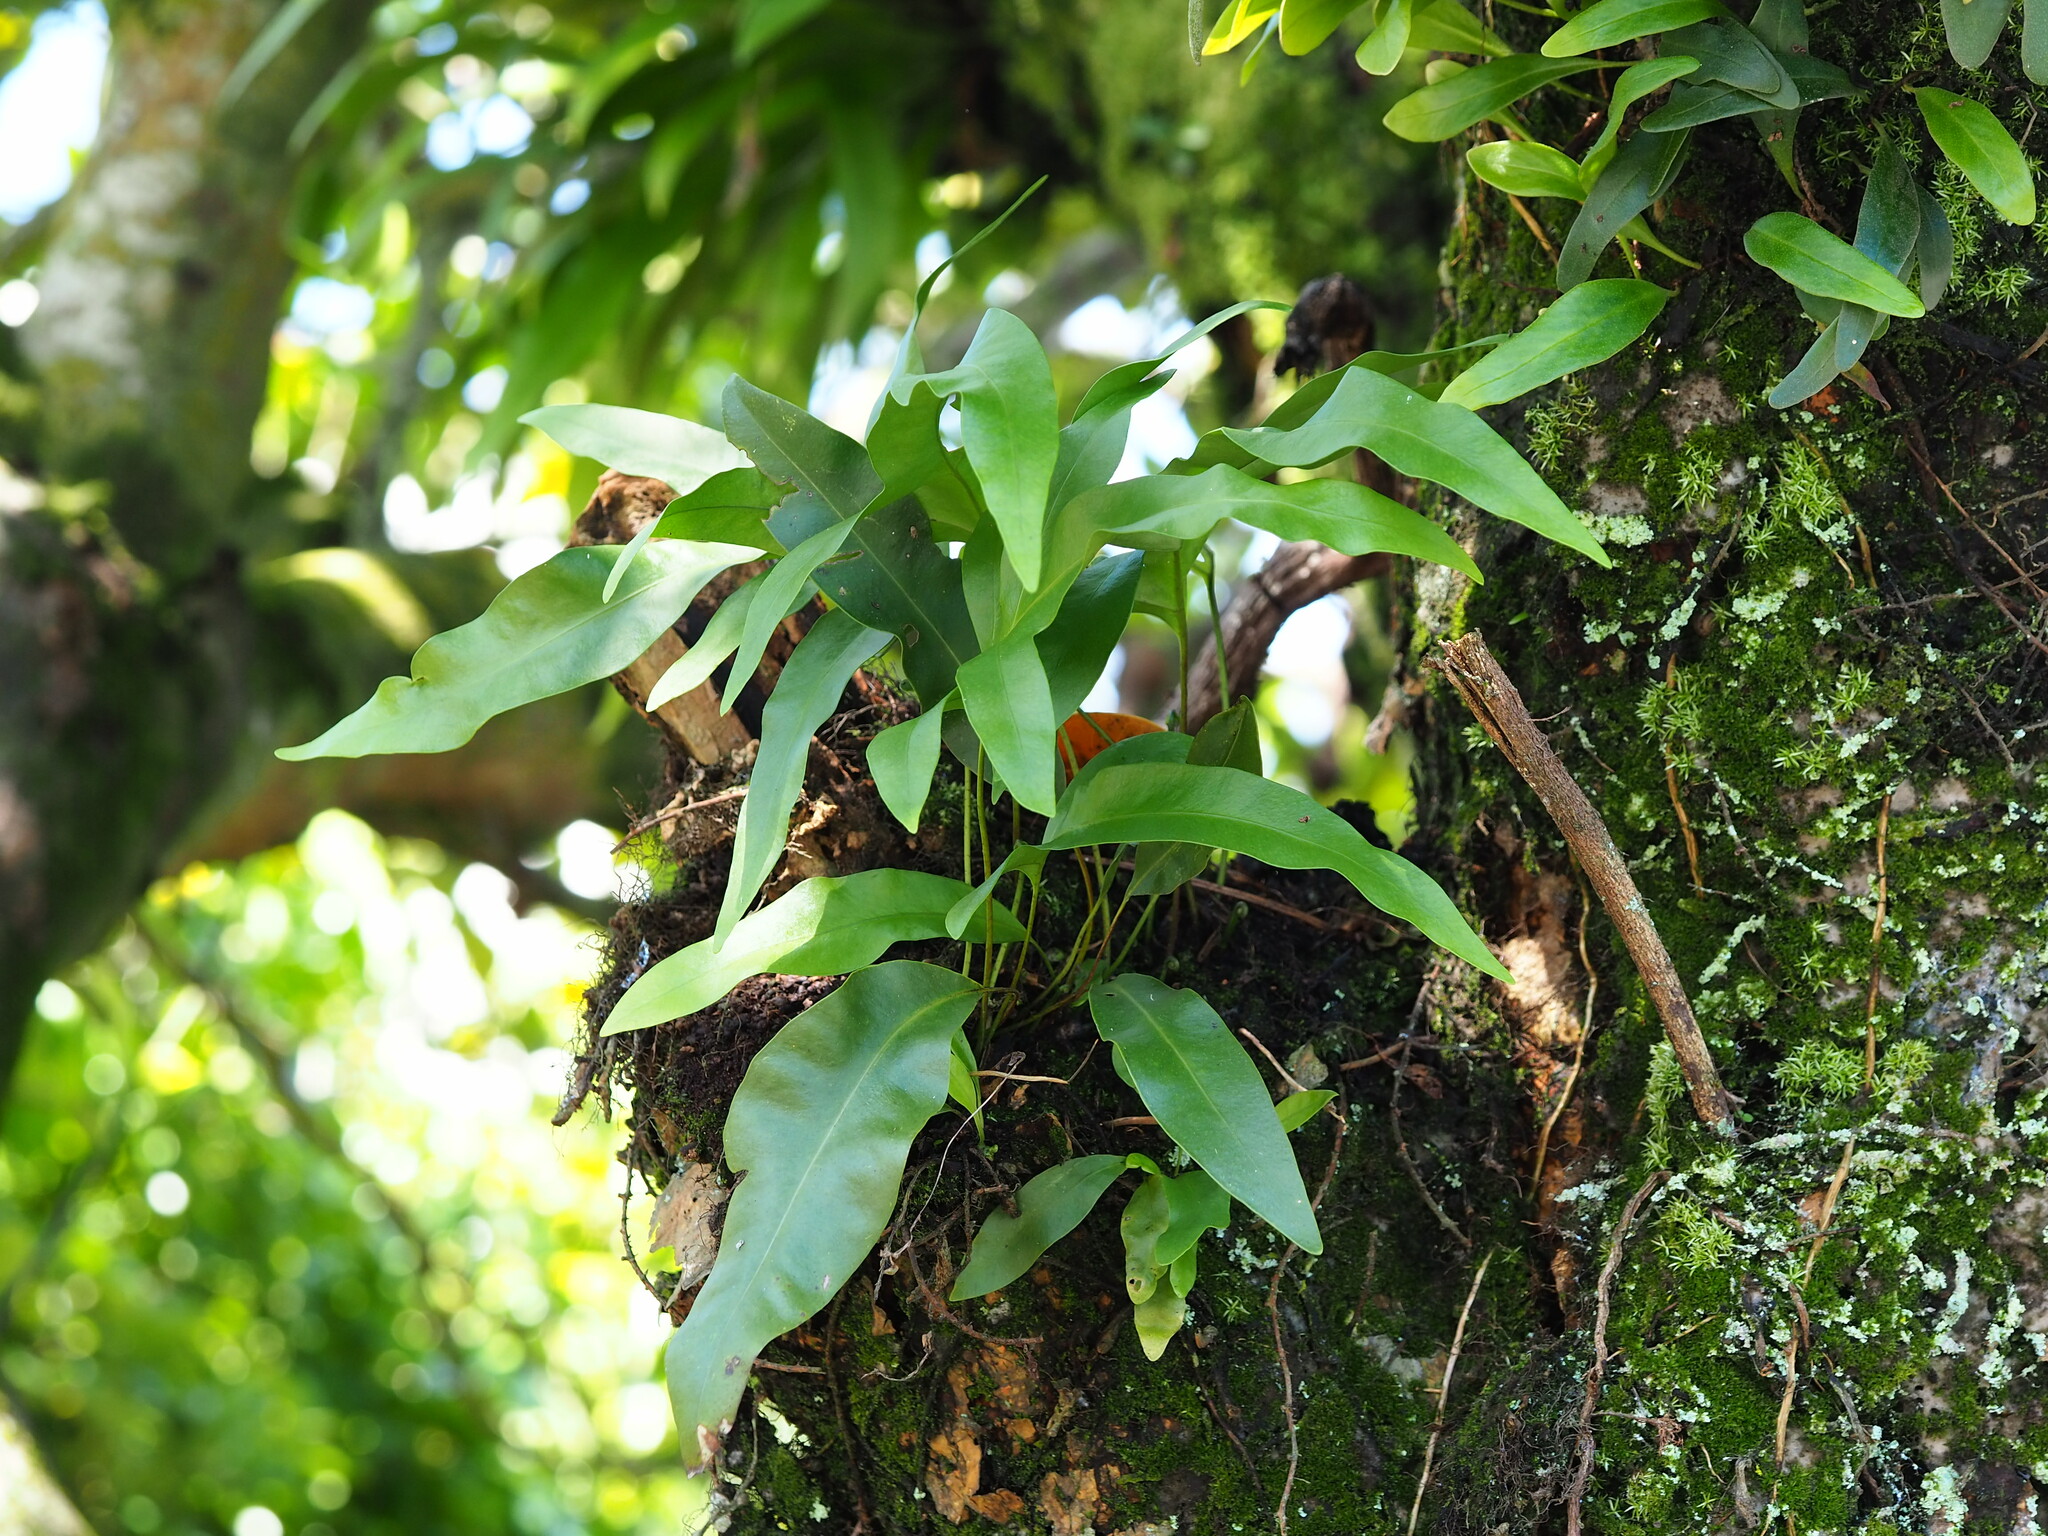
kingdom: Plantae
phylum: Tracheophyta
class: Polypodiopsida
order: Polypodiales
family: Polypodiaceae
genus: Microsorum
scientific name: Microsorum scolopendria
